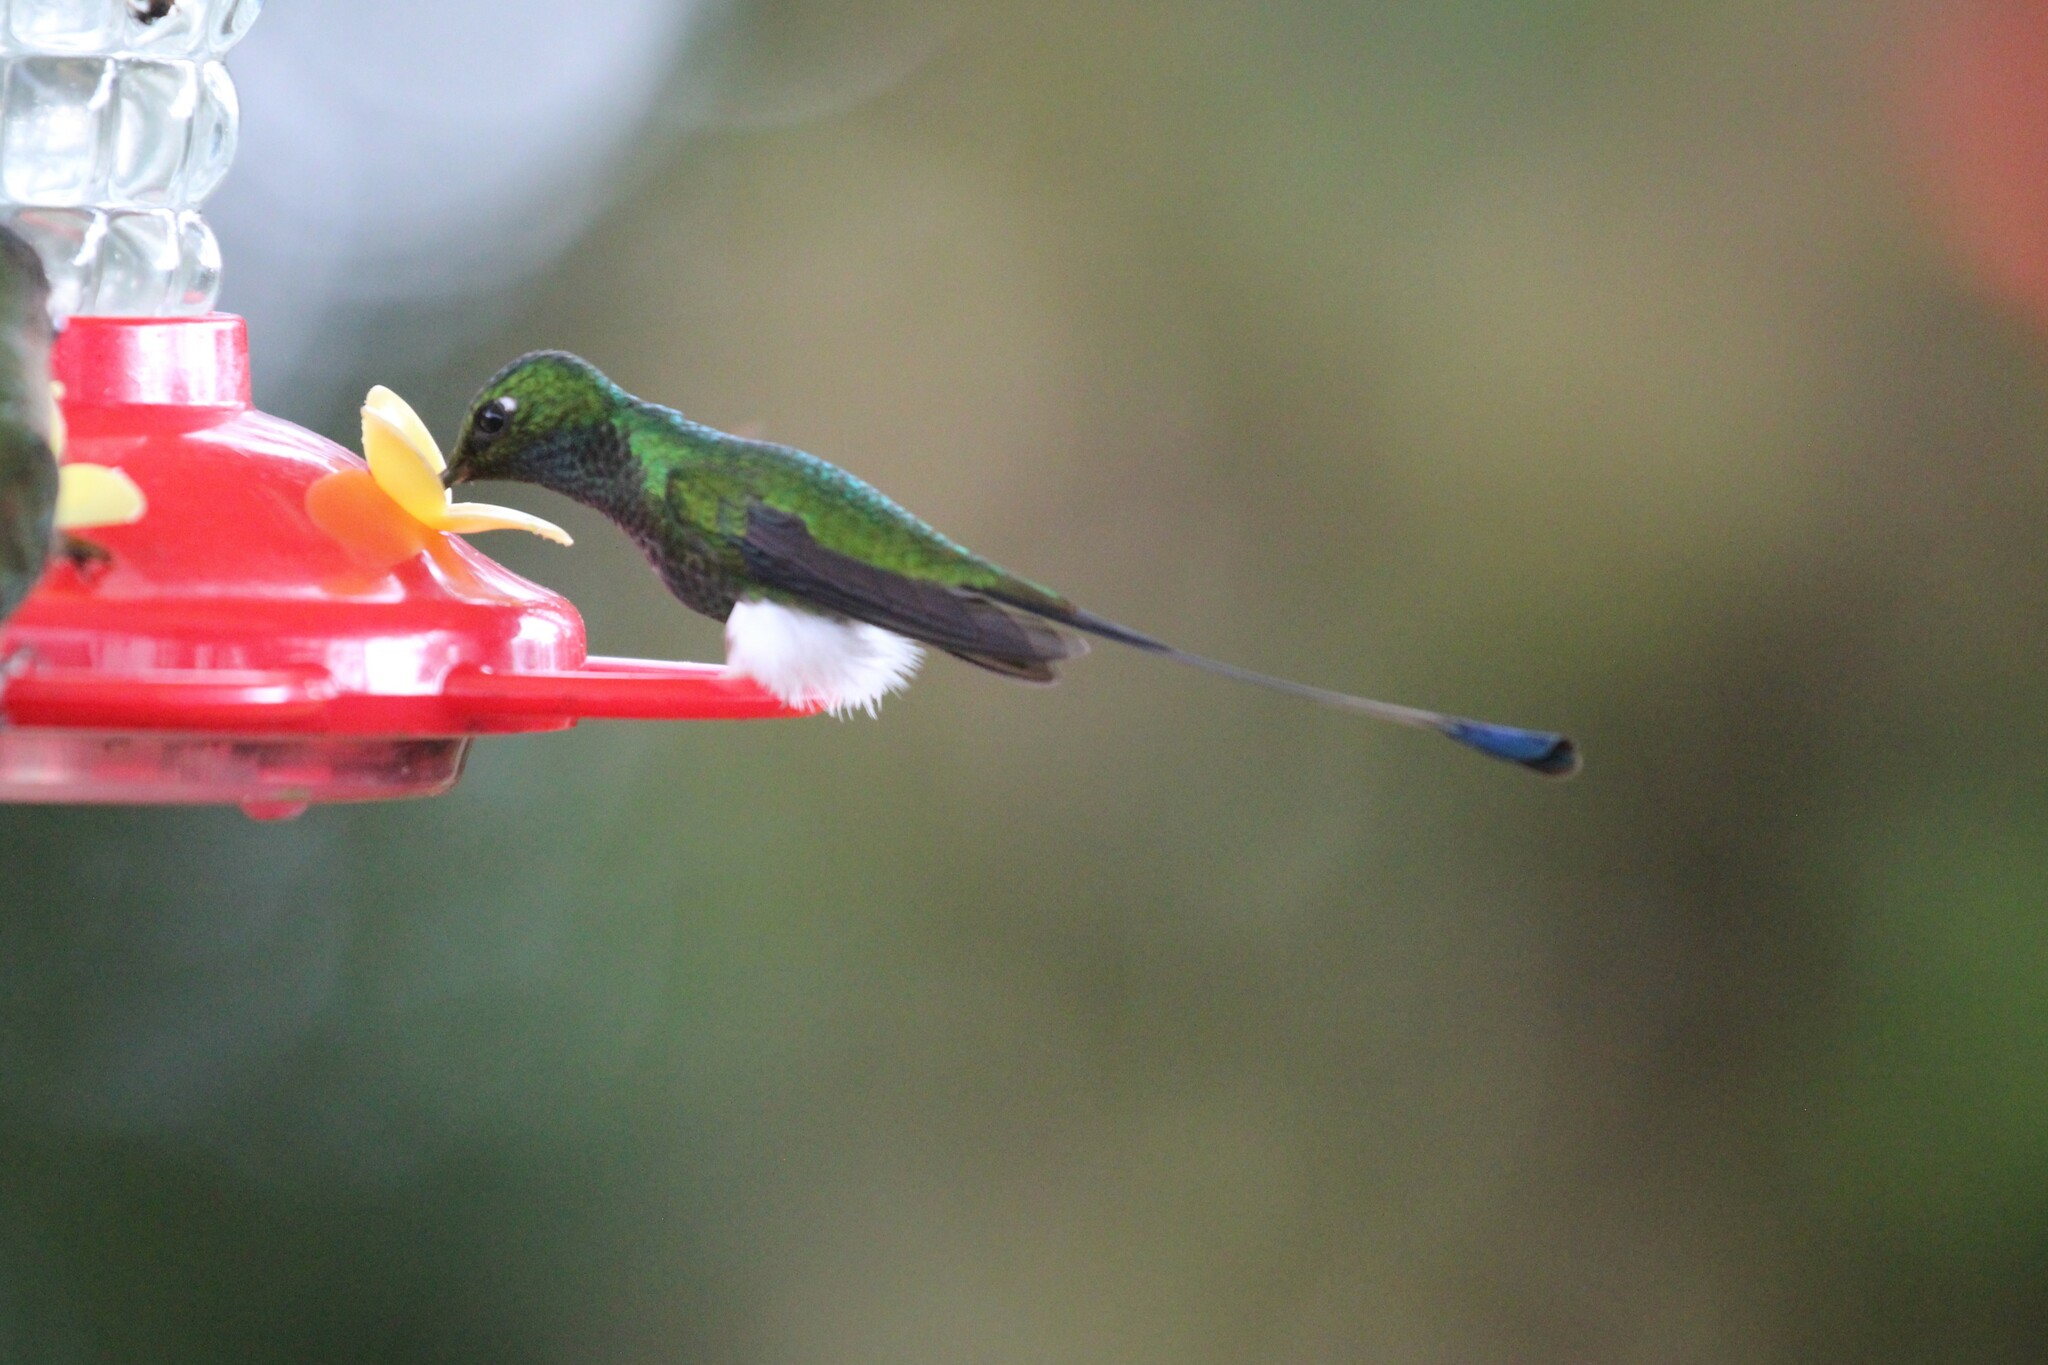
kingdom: Animalia
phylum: Chordata
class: Aves
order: Apodiformes
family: Trochilidae
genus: Ocreatus
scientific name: Ocreatus underwoodii
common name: Booted racket-tail
